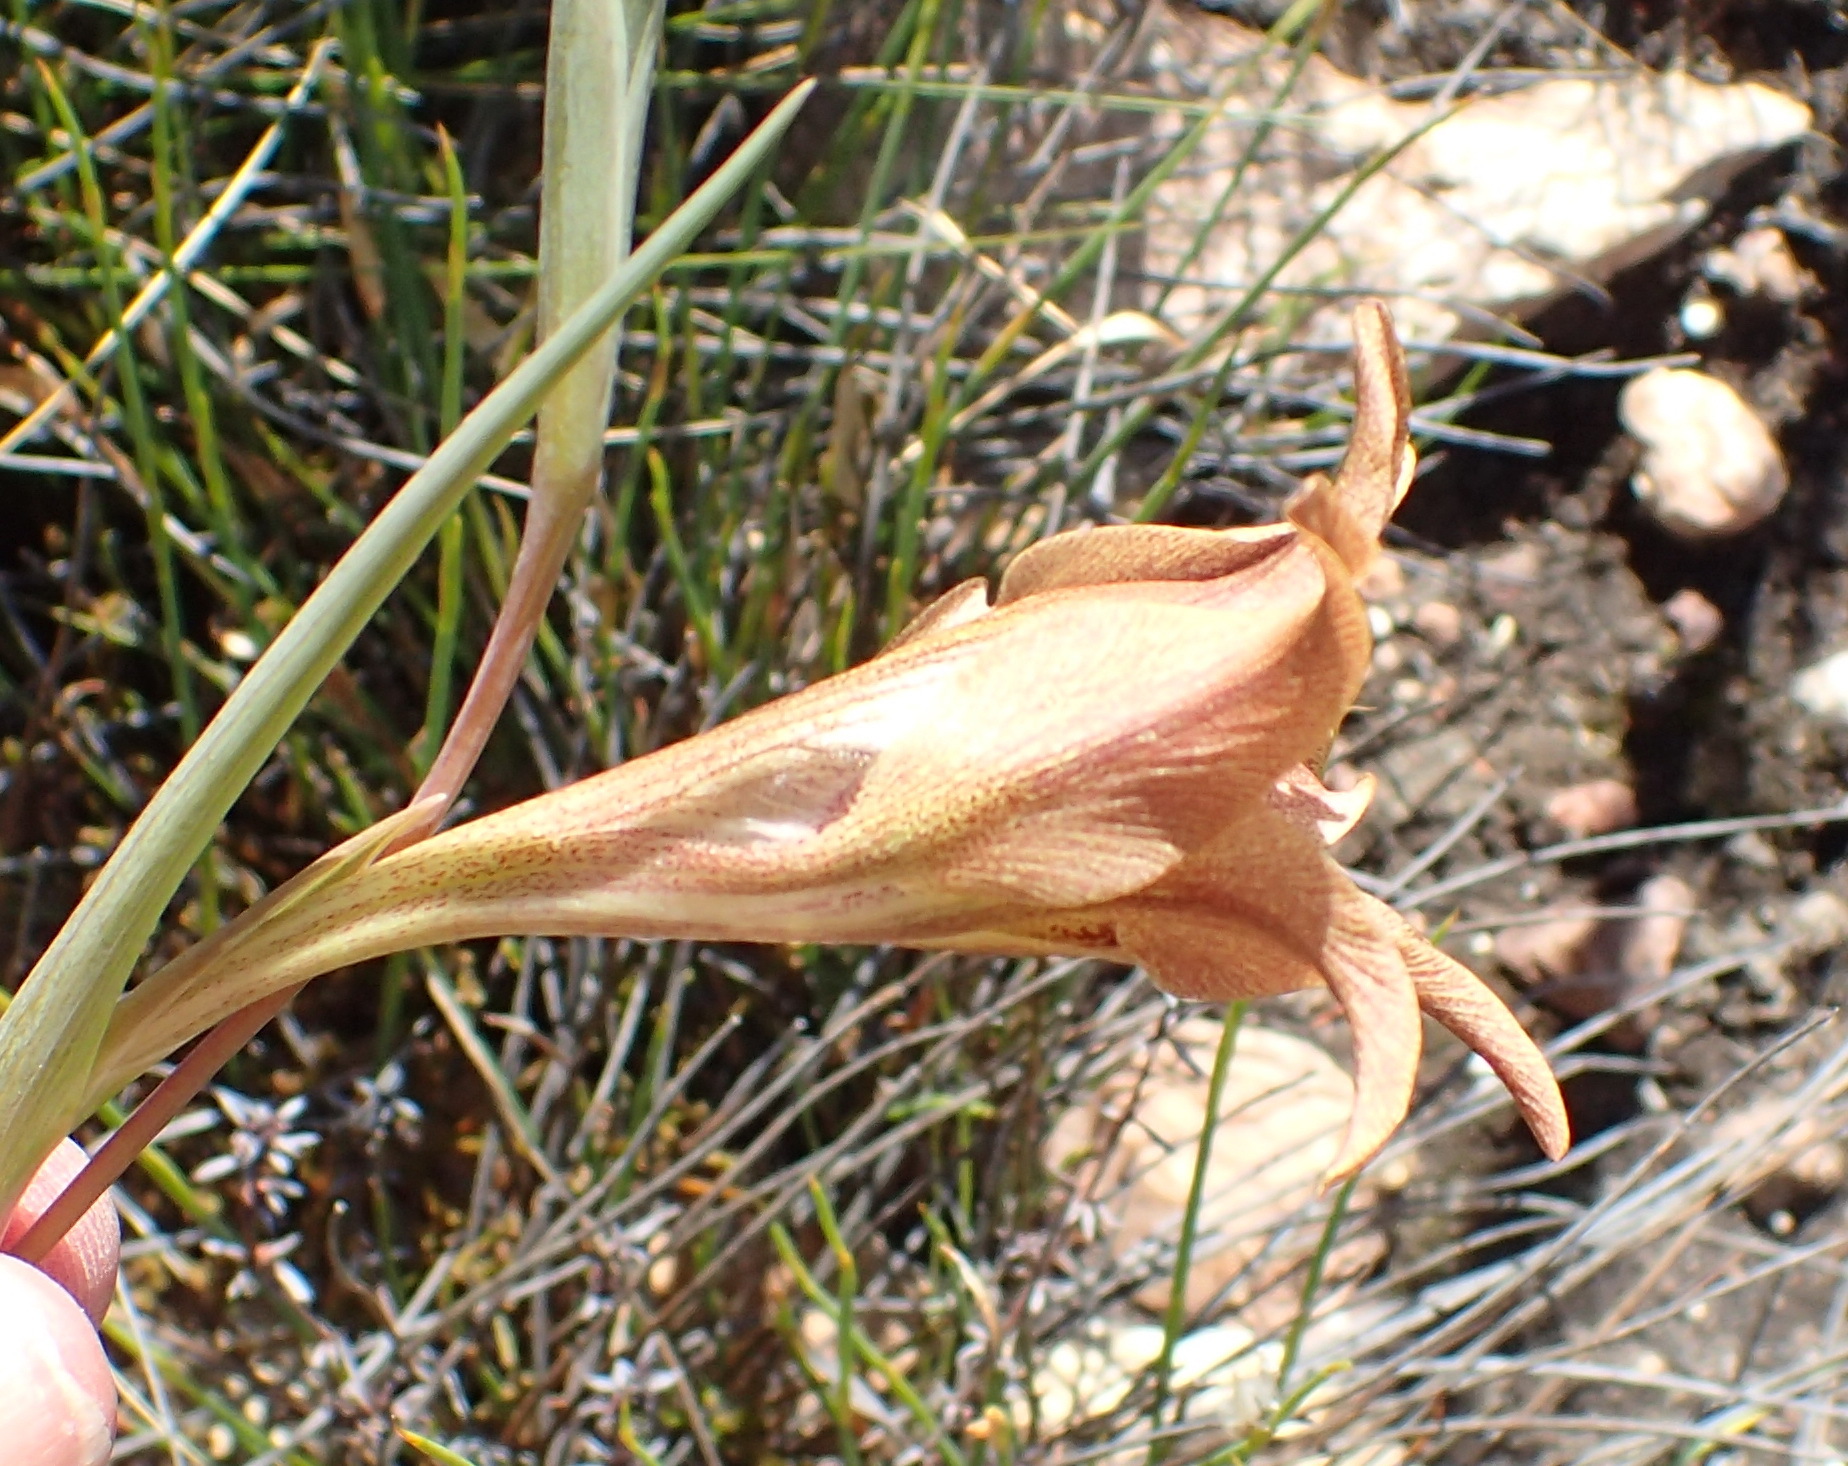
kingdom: Plantae
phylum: Tracheophyta
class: Liliopsida
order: Asparagales
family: Iridaceae
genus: Gladiolus
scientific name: Gladiolus liliaceus
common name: Large brown afrikaner
